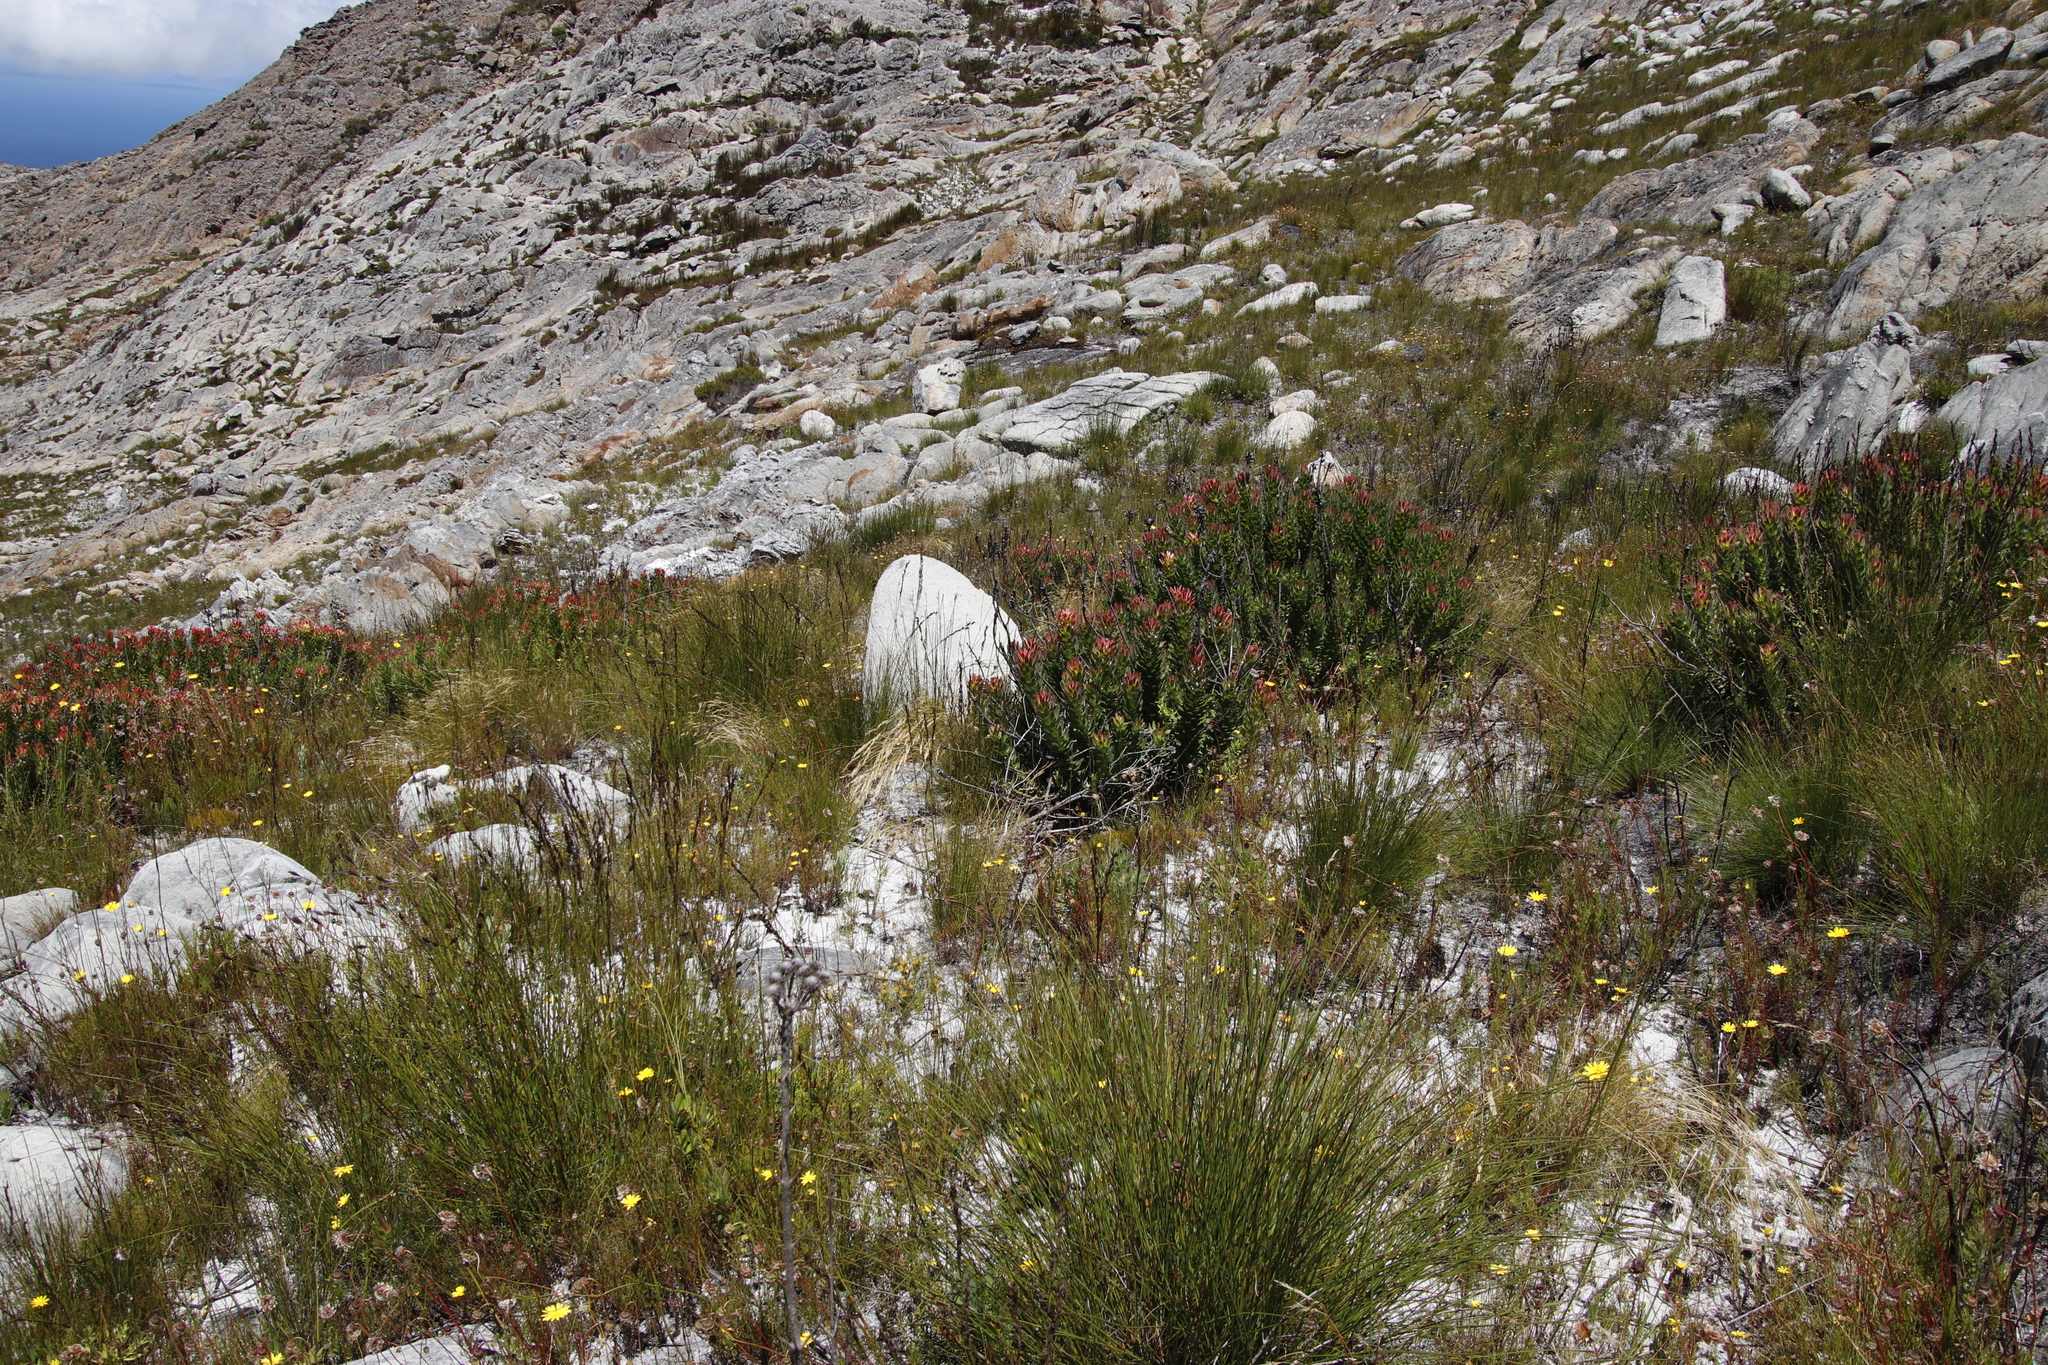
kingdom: Plantae
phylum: Tracheophyta
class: Magnoliopsida
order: Proteales
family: Proteaceae
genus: Mimetes
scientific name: Mimetes cucullatus
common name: Common pagoda
